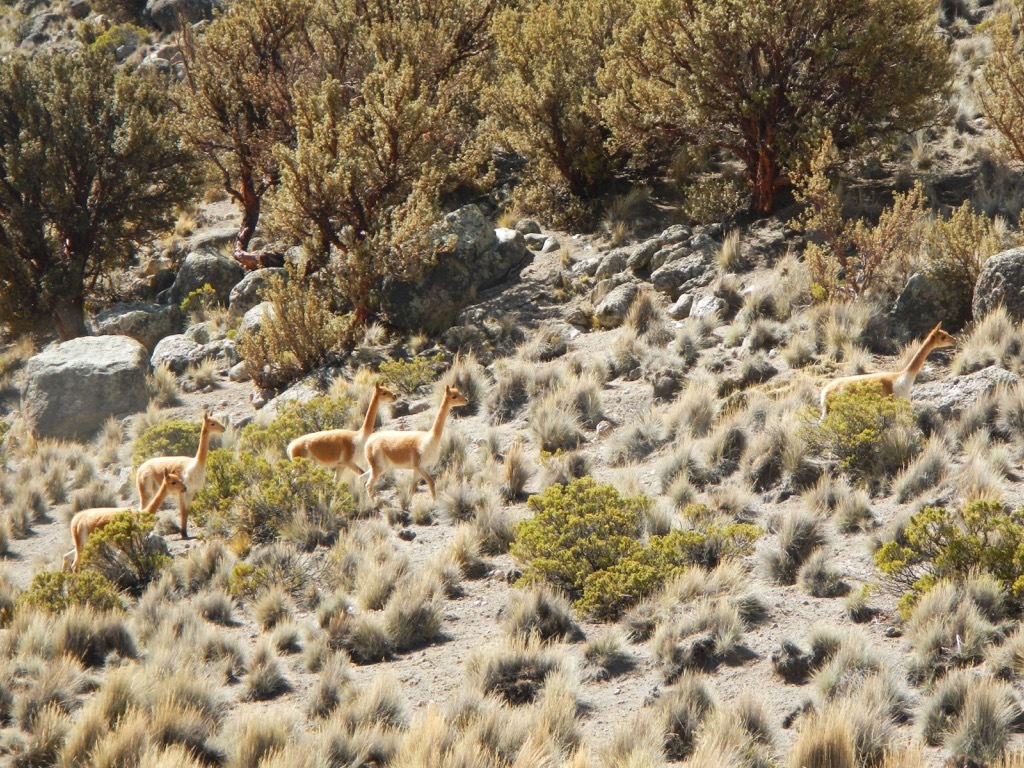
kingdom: Animalia
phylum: Chordata
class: Mammalia
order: Artiodactyla
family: Camelidae
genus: Vicugna
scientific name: Vicugna vicugna
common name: Vicugna
